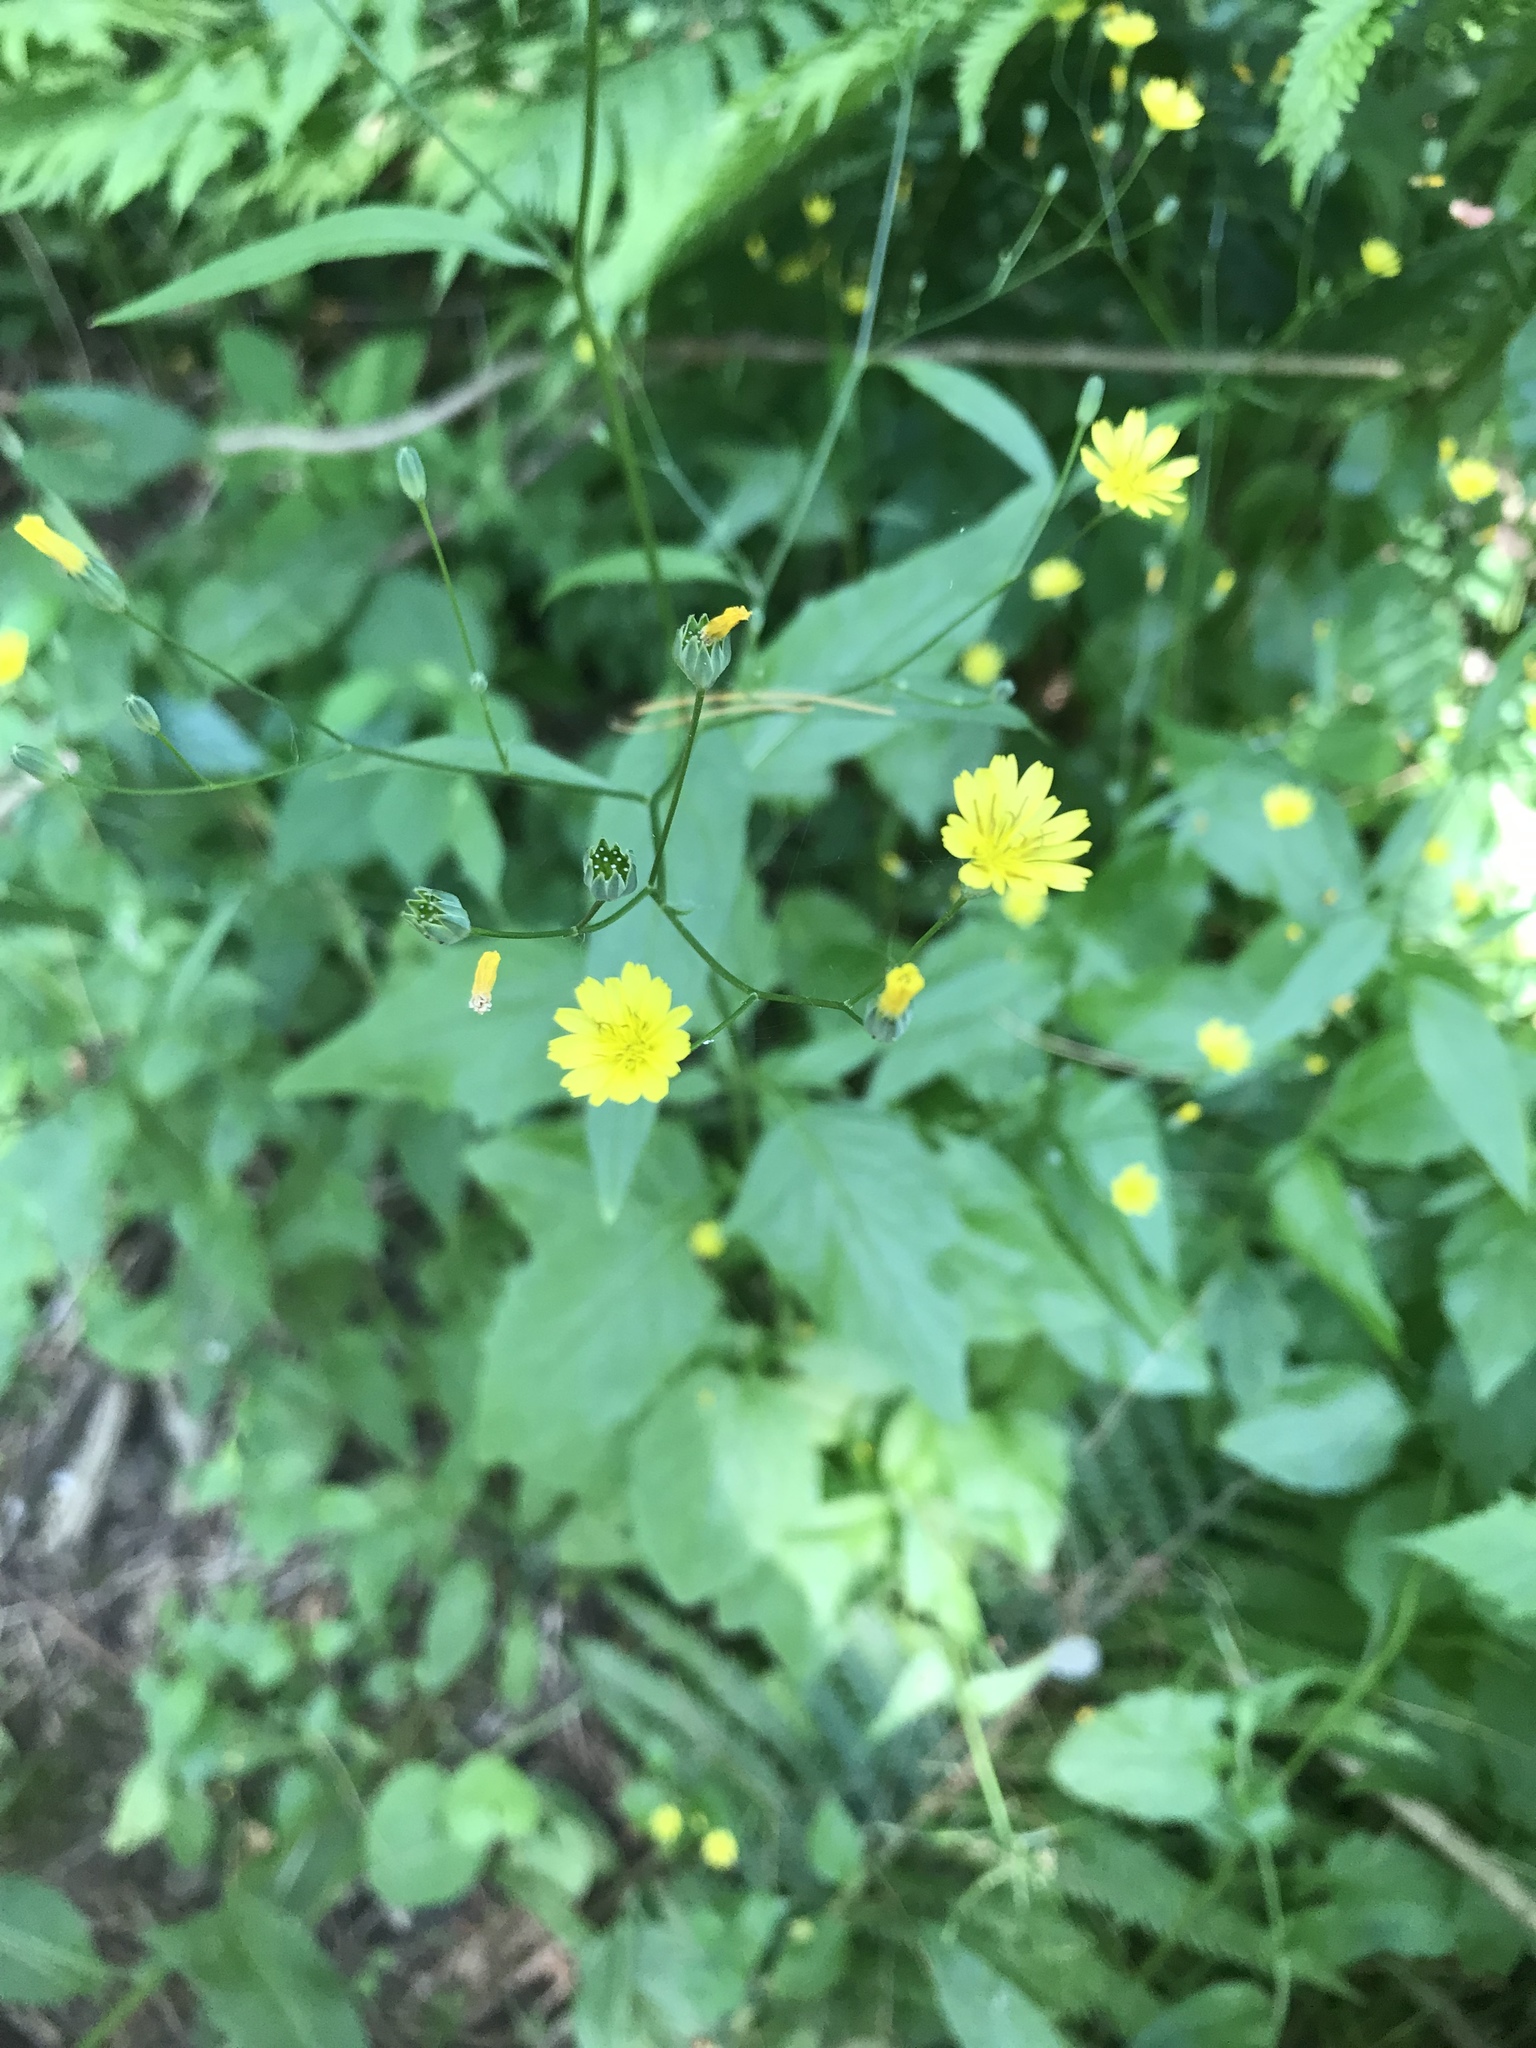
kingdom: Plantae
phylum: Tracheophyta
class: Magnoliopsida
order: Asterales
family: Asteraceae
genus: Lapsana
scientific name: Lapsana communis
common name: Nipplewort
